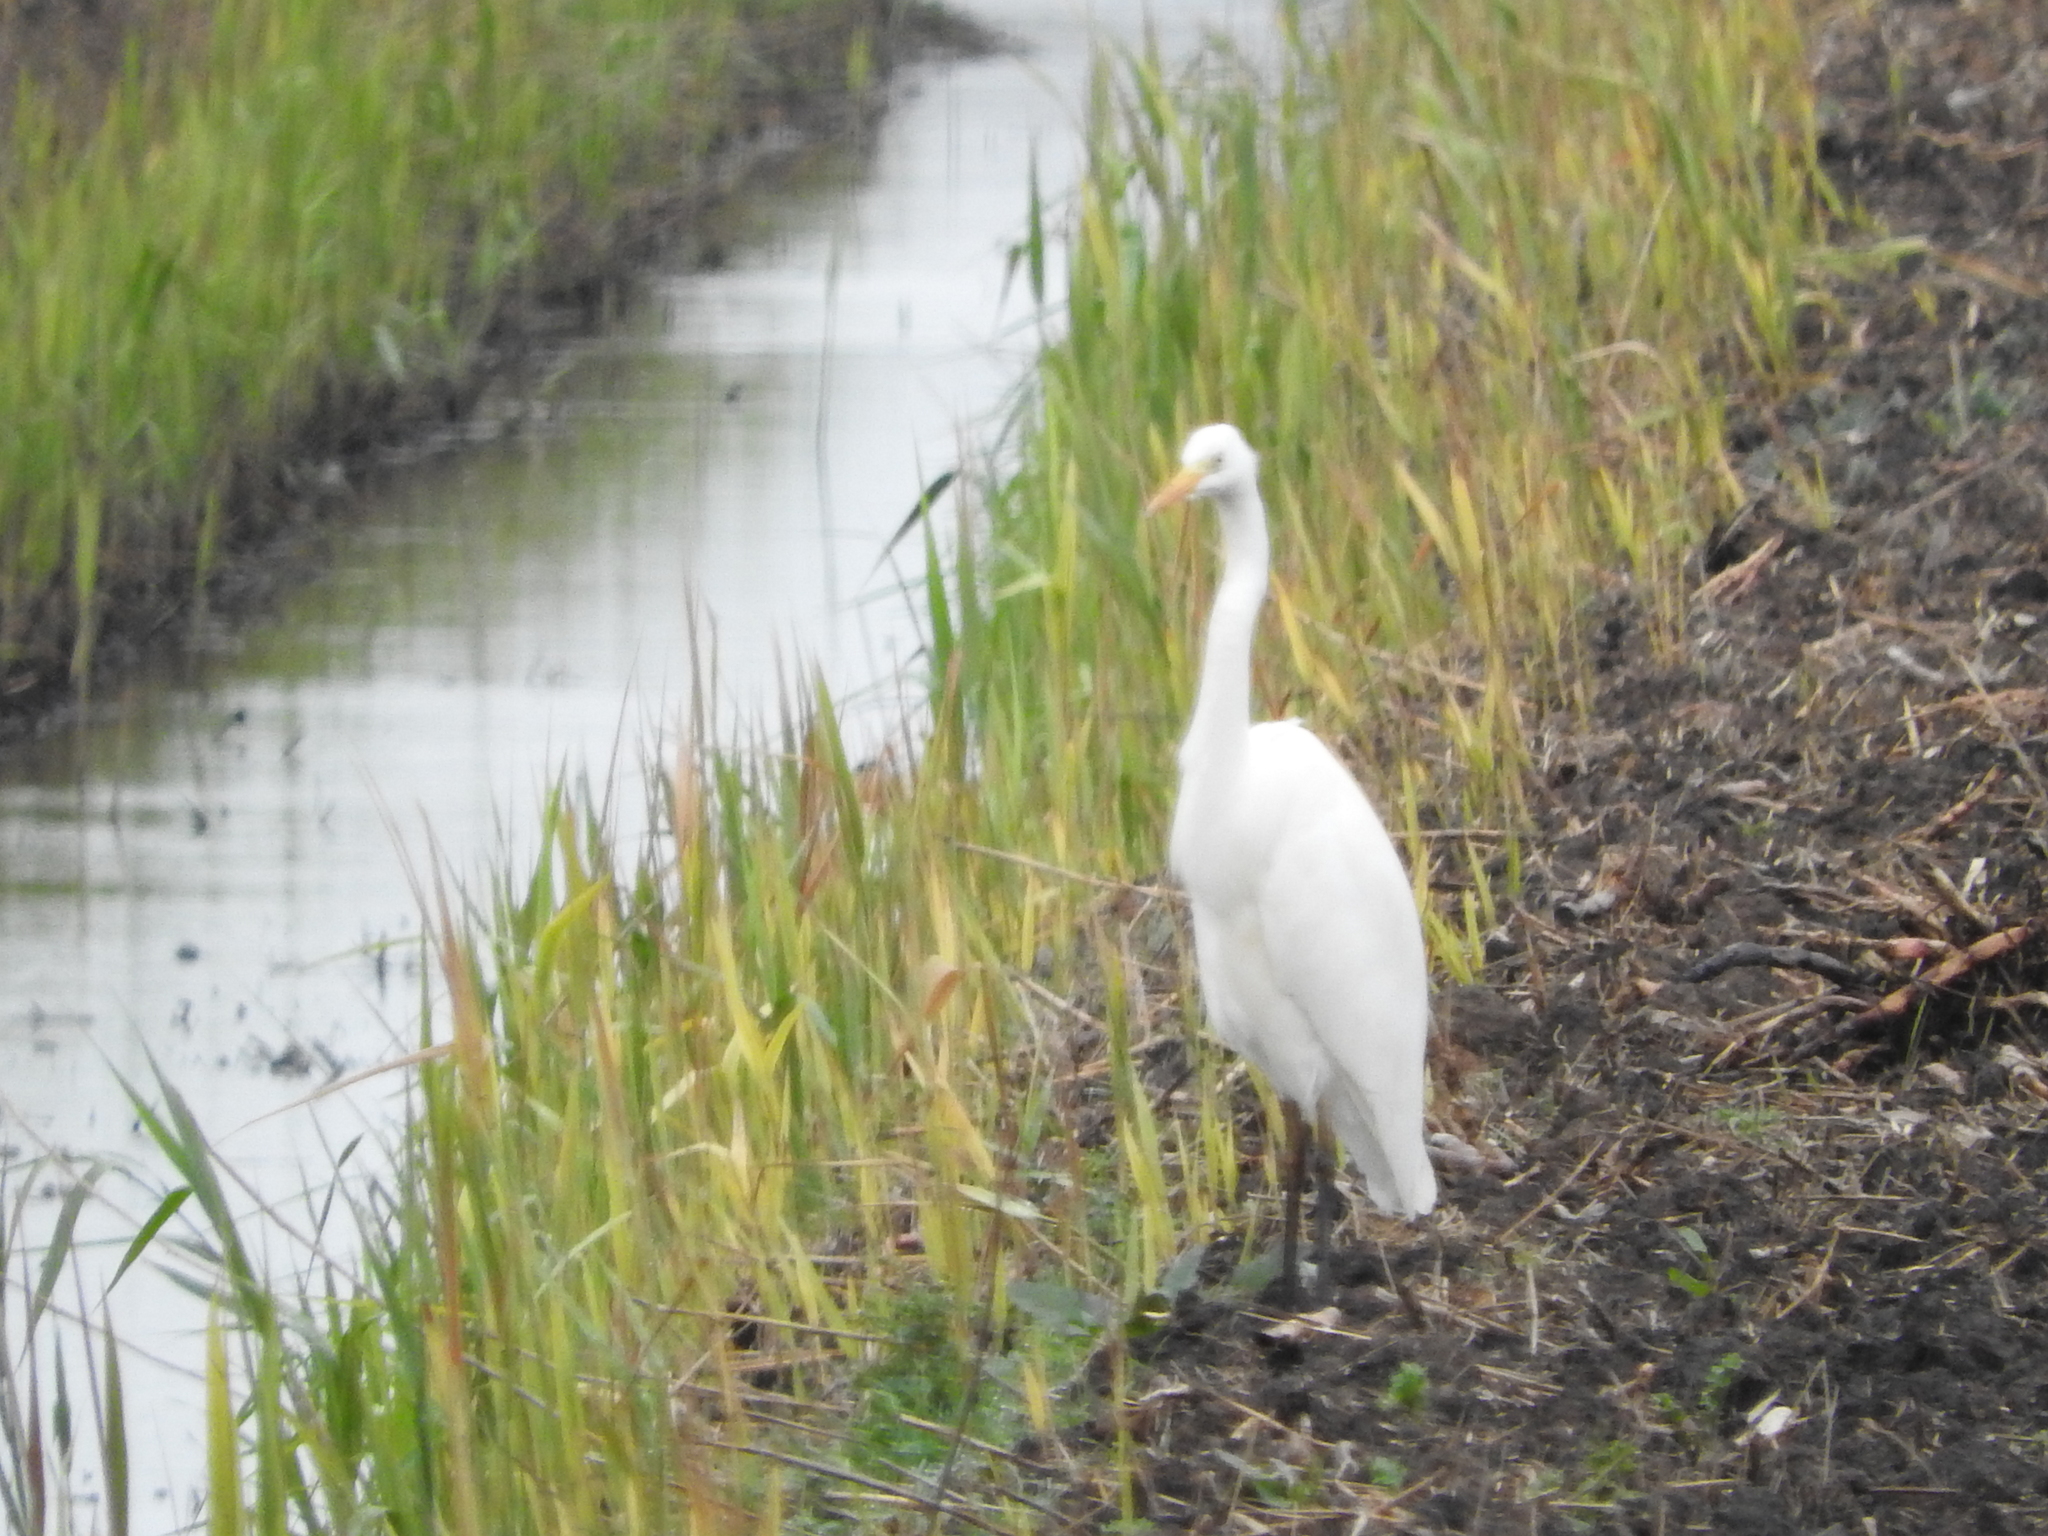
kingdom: Animalia
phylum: Chordata
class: Aves
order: Pelecaniformes
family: Ardeidae
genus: Ardea
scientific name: Ardea alba
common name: Great egret
